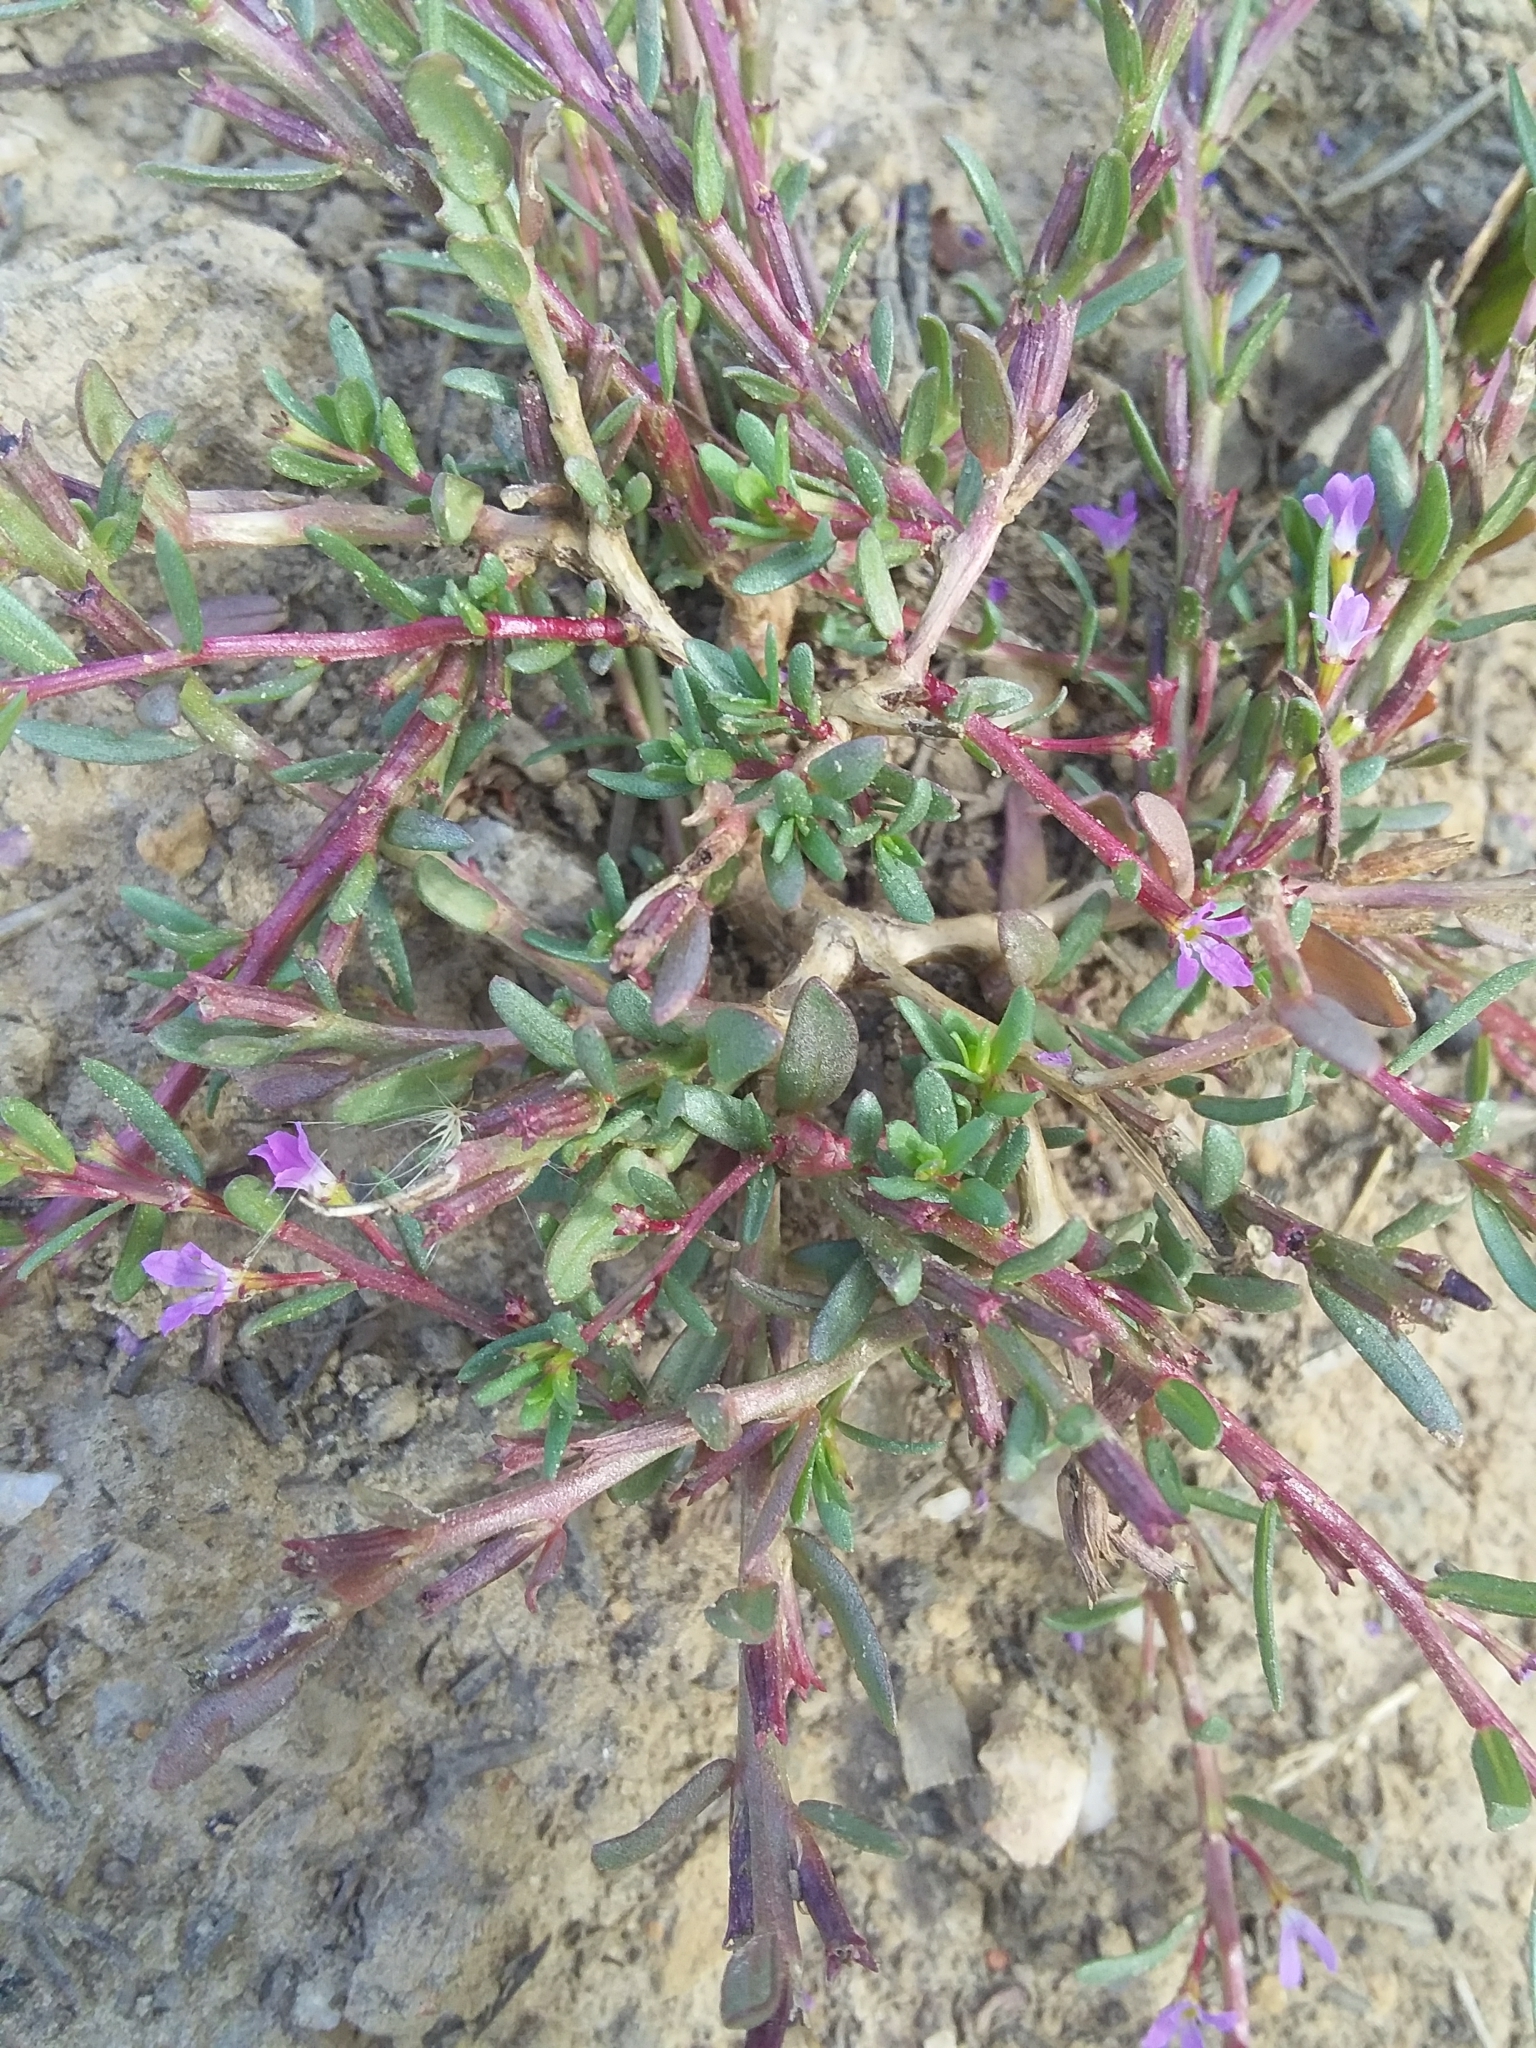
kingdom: Plantae
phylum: Tracheophyta
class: Magnoliopsida
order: Myrtales
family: Lythraceae
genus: Lythrum
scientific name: Lythrum hyssopifolia
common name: Grass-poly
